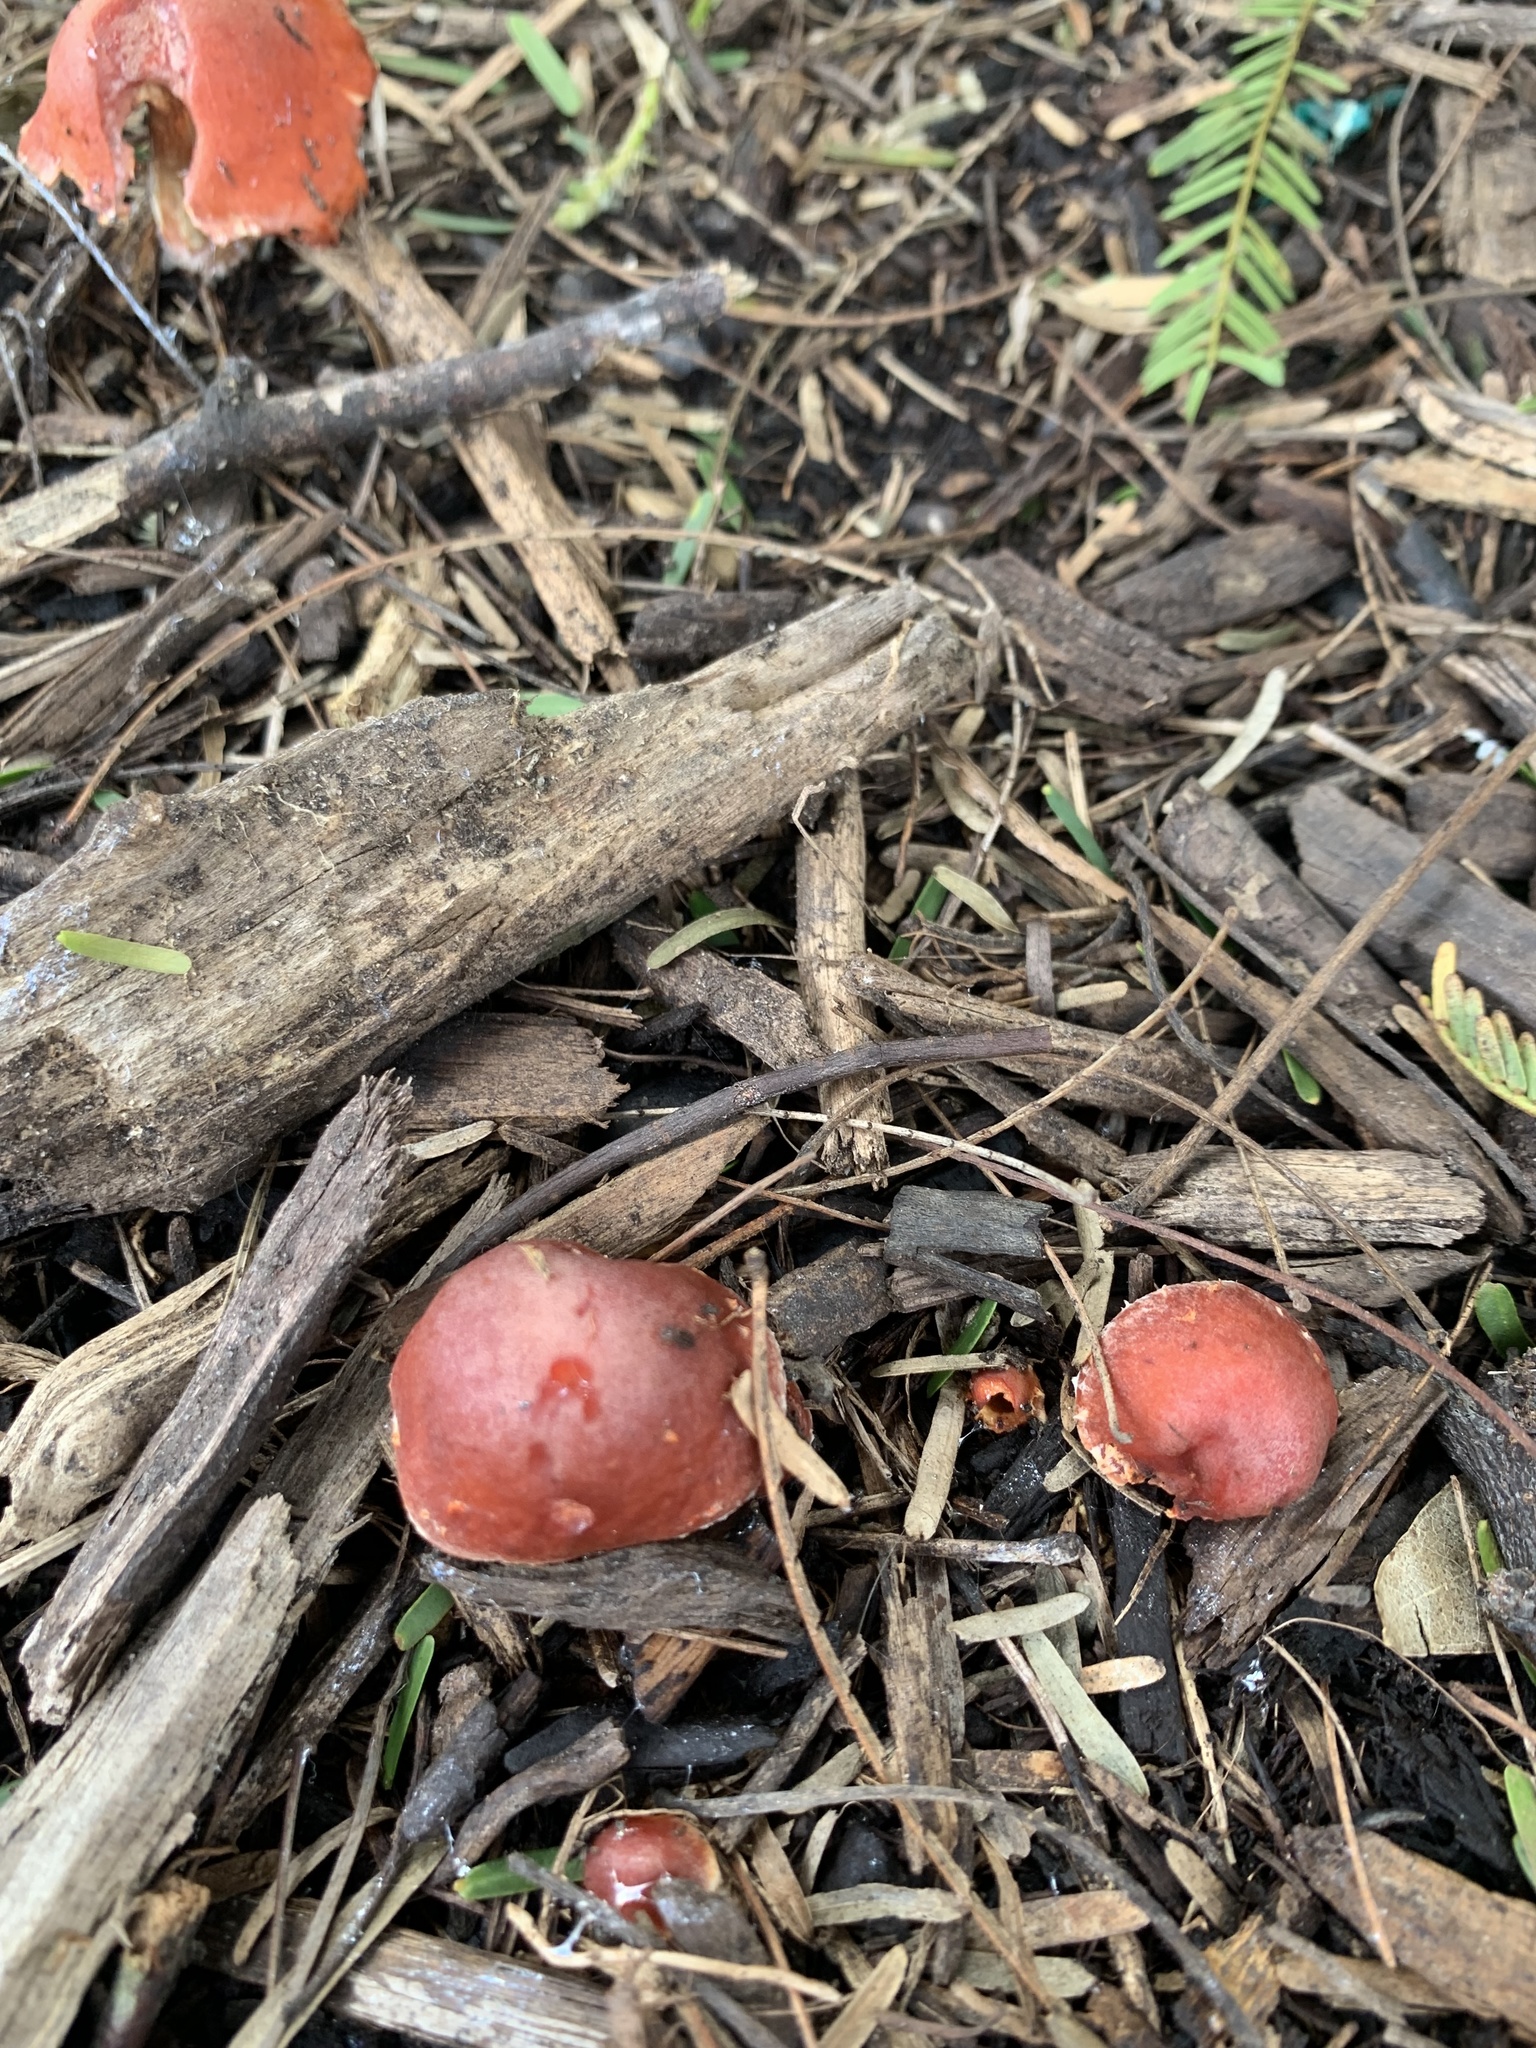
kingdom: Fungi
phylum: Basidiomycota
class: Agaricomycetes
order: Agaricales
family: Strophariaceae
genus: Leratiomyces
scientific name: Leratiomyces ceres
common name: Redlead roundhead
